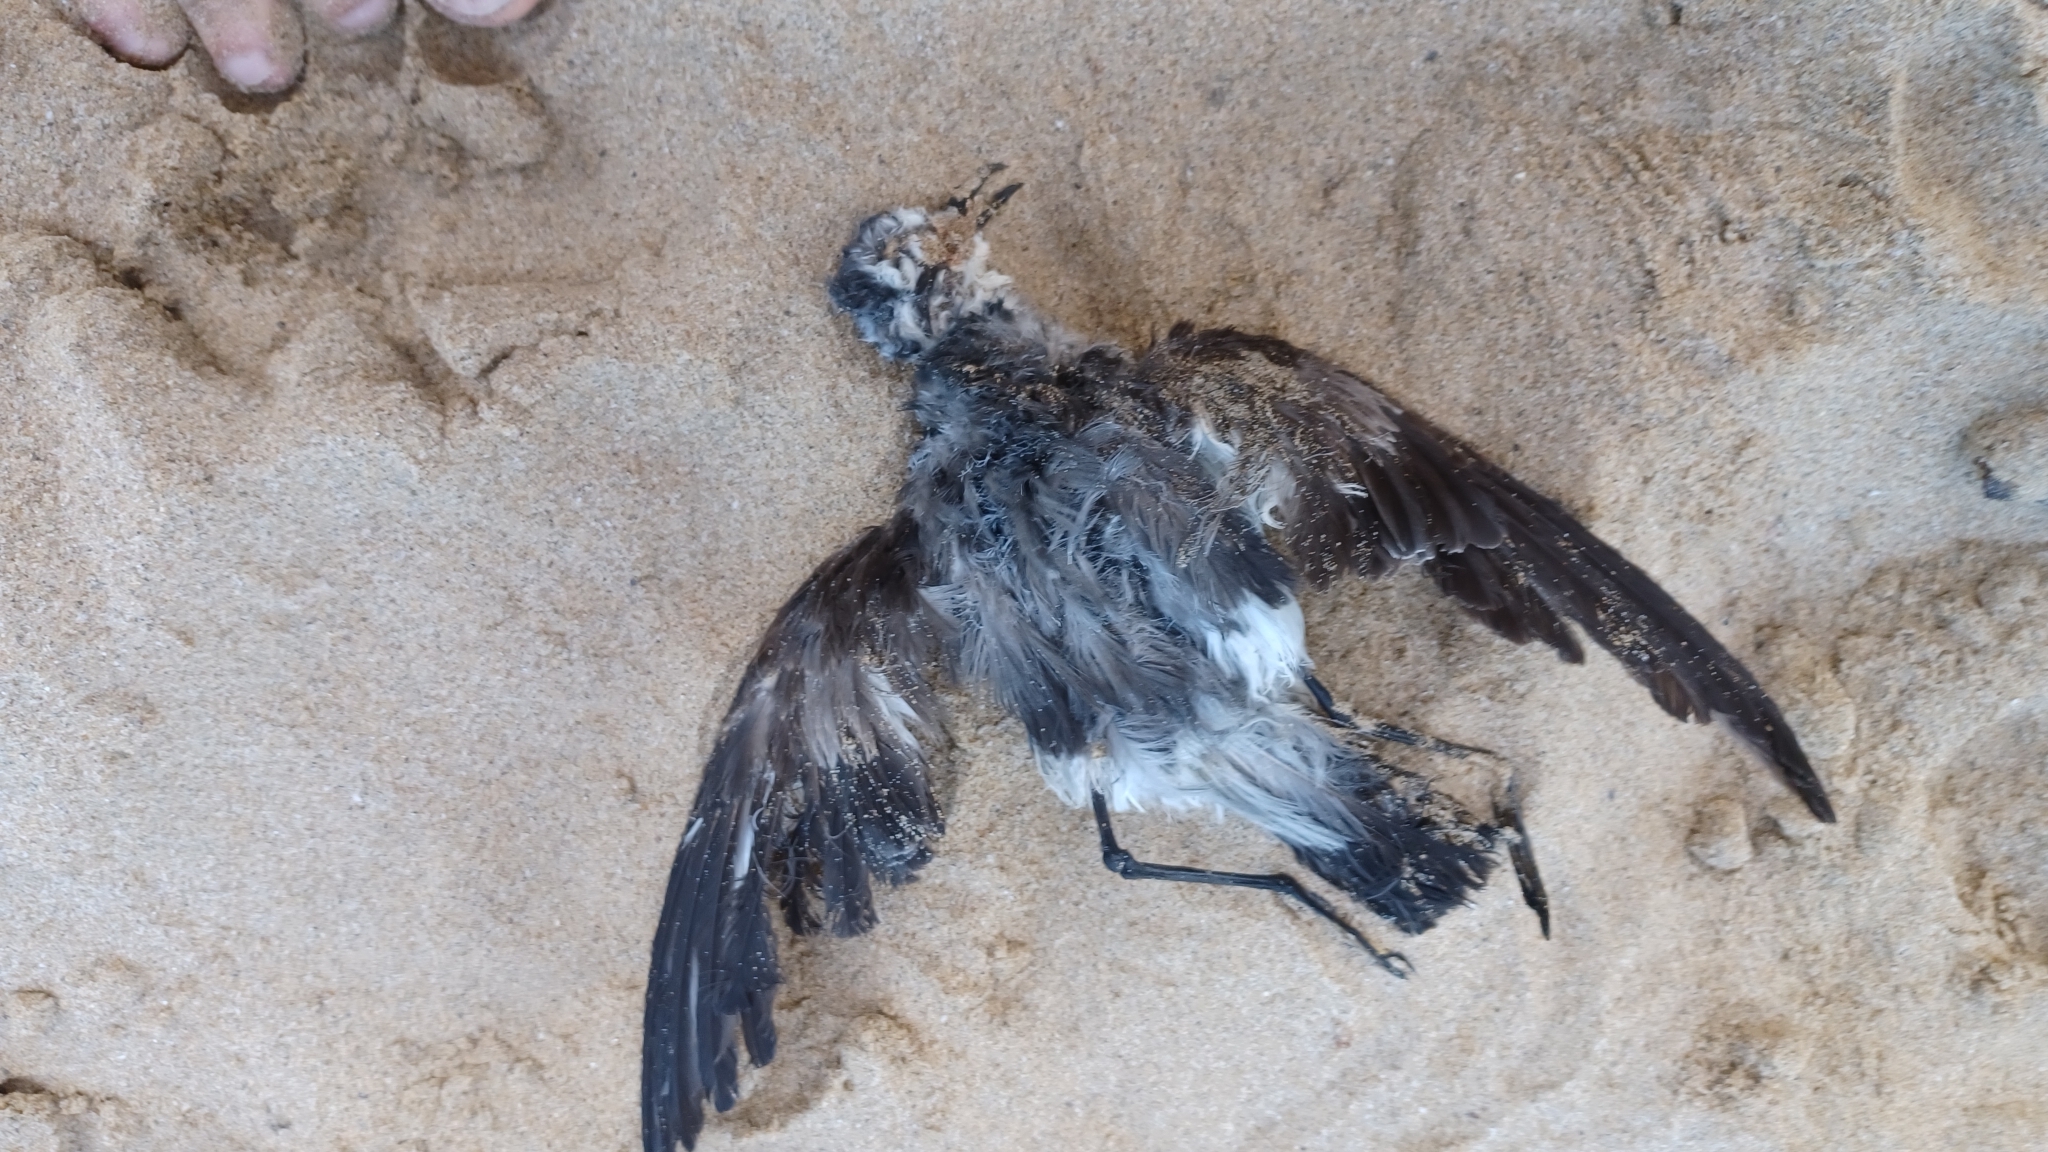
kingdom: Animalia
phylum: Chordata
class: Aves
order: Procellariiformes
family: Hydrobatidae
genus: Pelagodroma
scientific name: Pelagodroma marina
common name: White-faced storm-petrel
